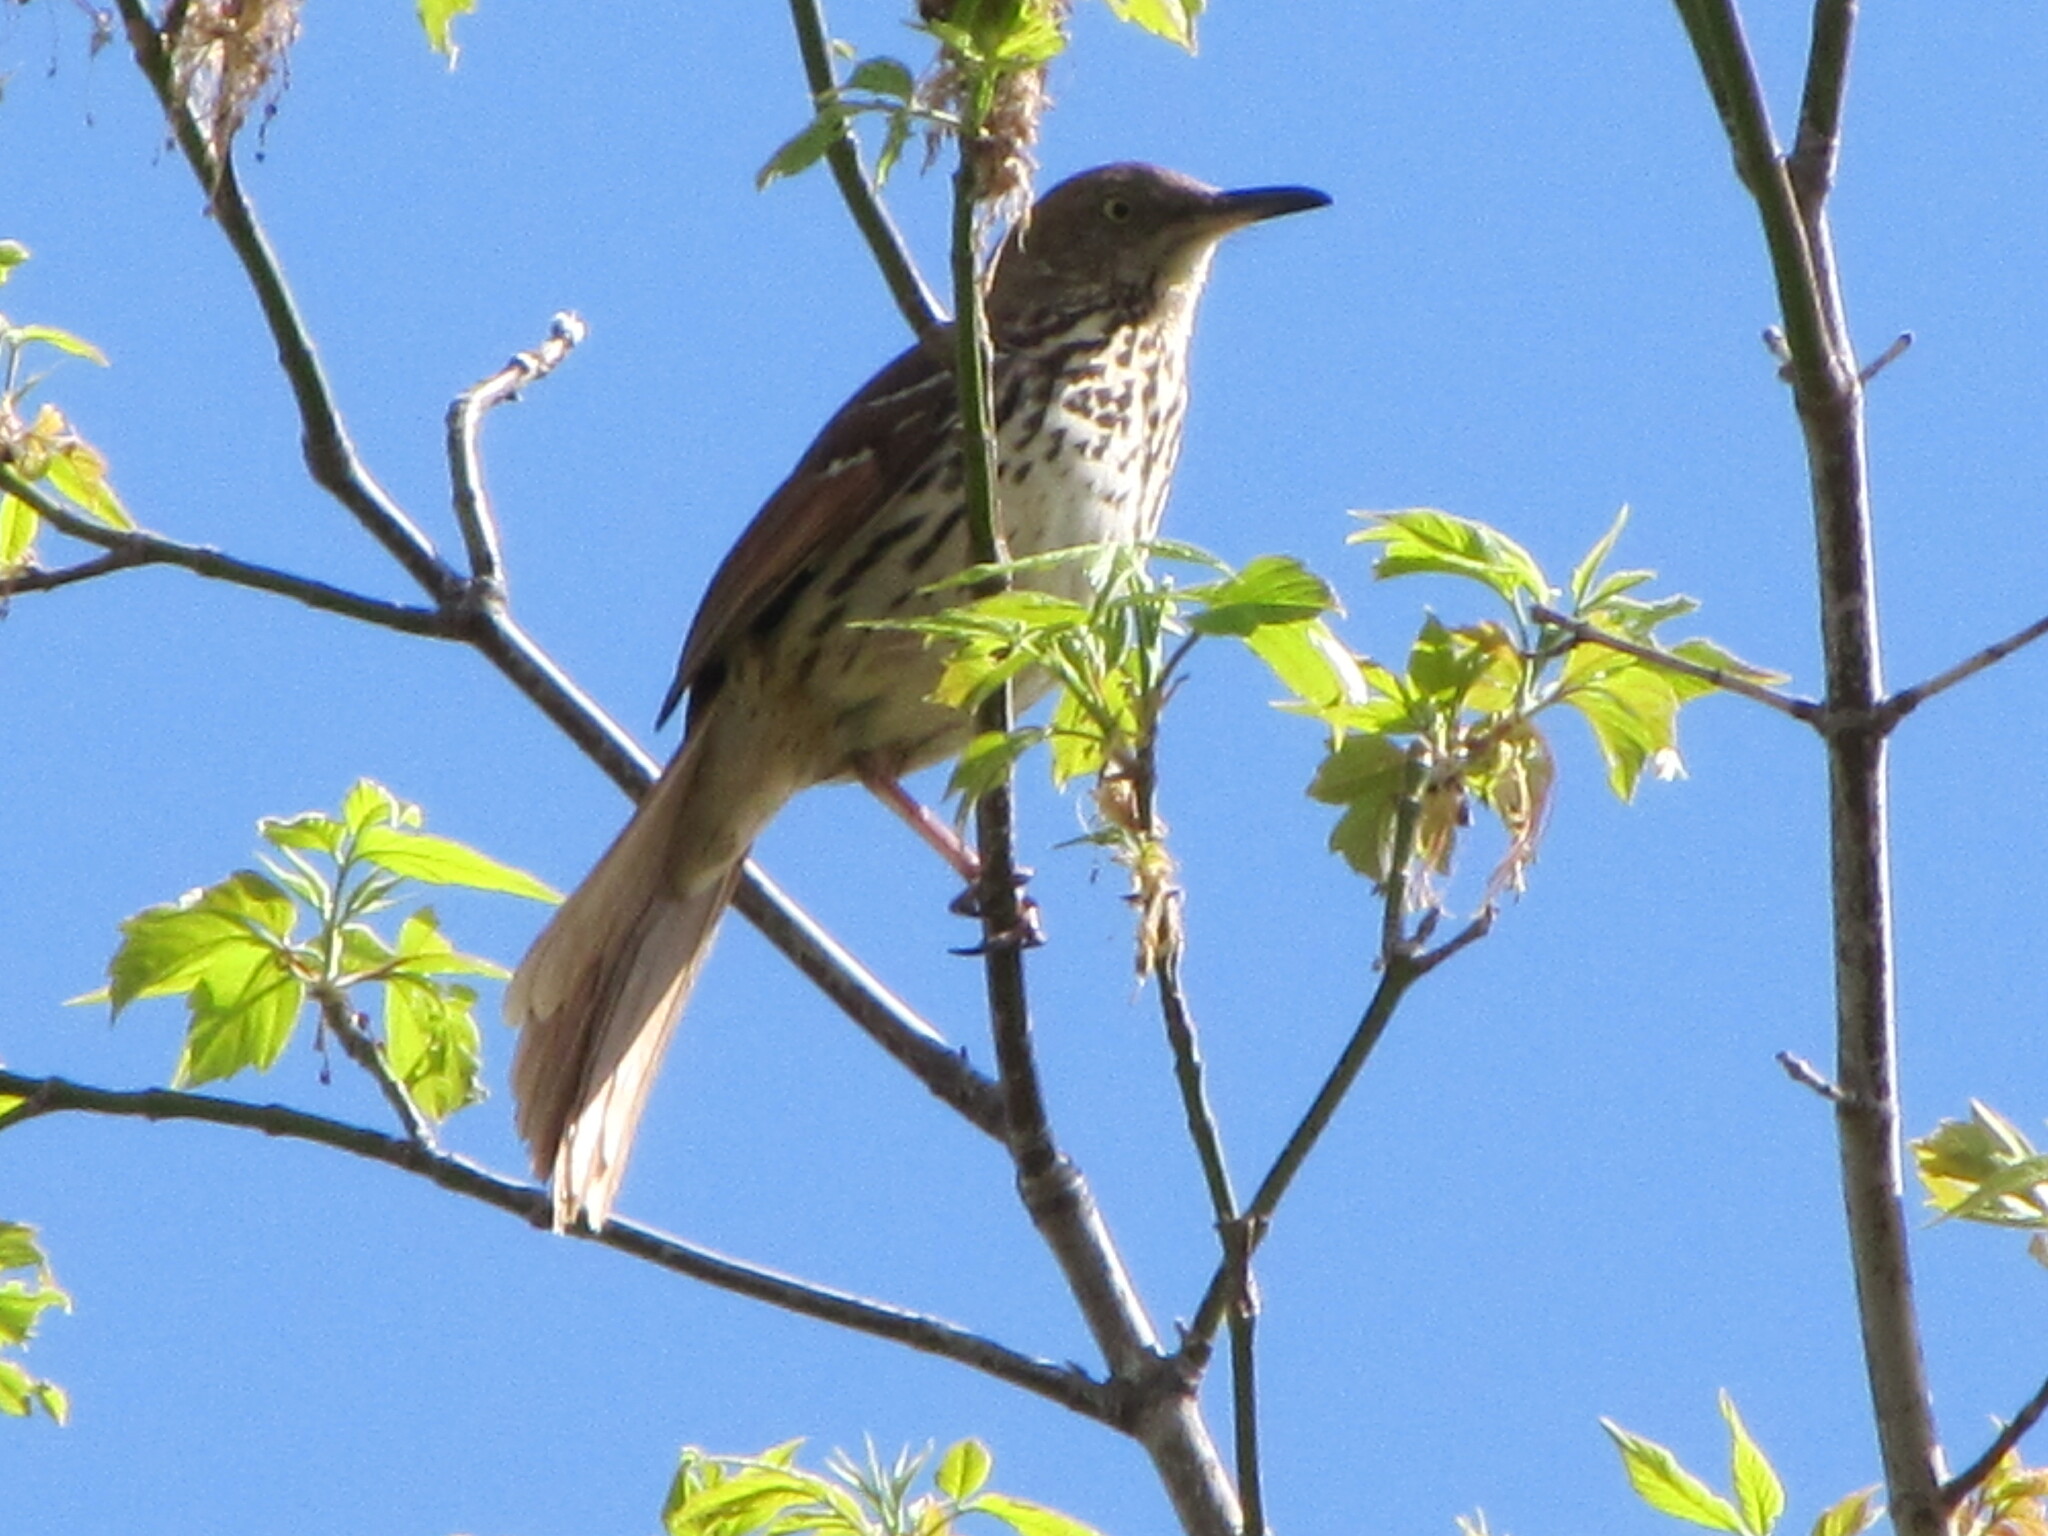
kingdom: Animalia
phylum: Chordata
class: Aves
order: Passeriformes
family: Mimidae
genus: Toxostoma
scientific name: Toxostoma rufum
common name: Brown thrasher
